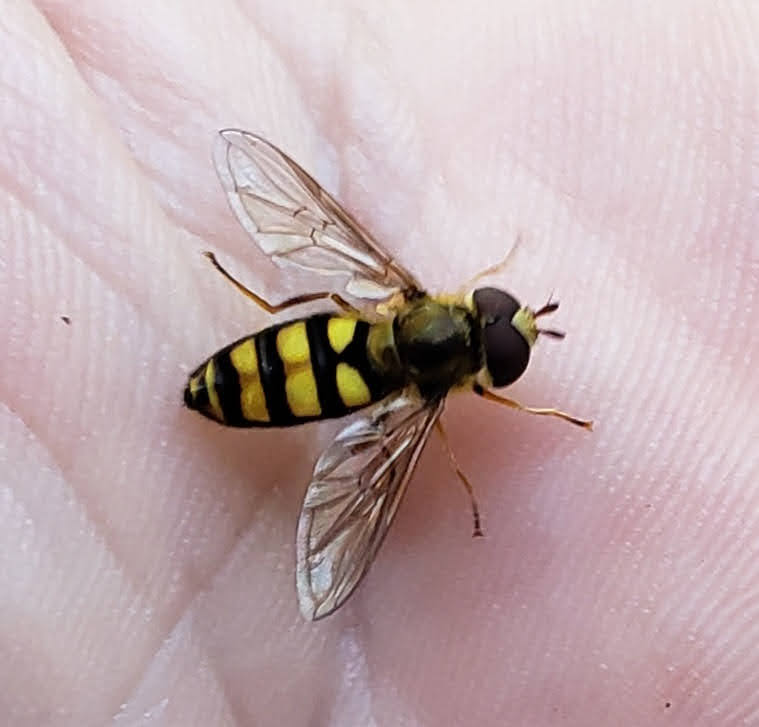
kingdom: Animalia
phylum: Arthropoda
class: Insecta
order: Diptera
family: Syrphidae
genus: Eupeodes
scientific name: Eupeodes
